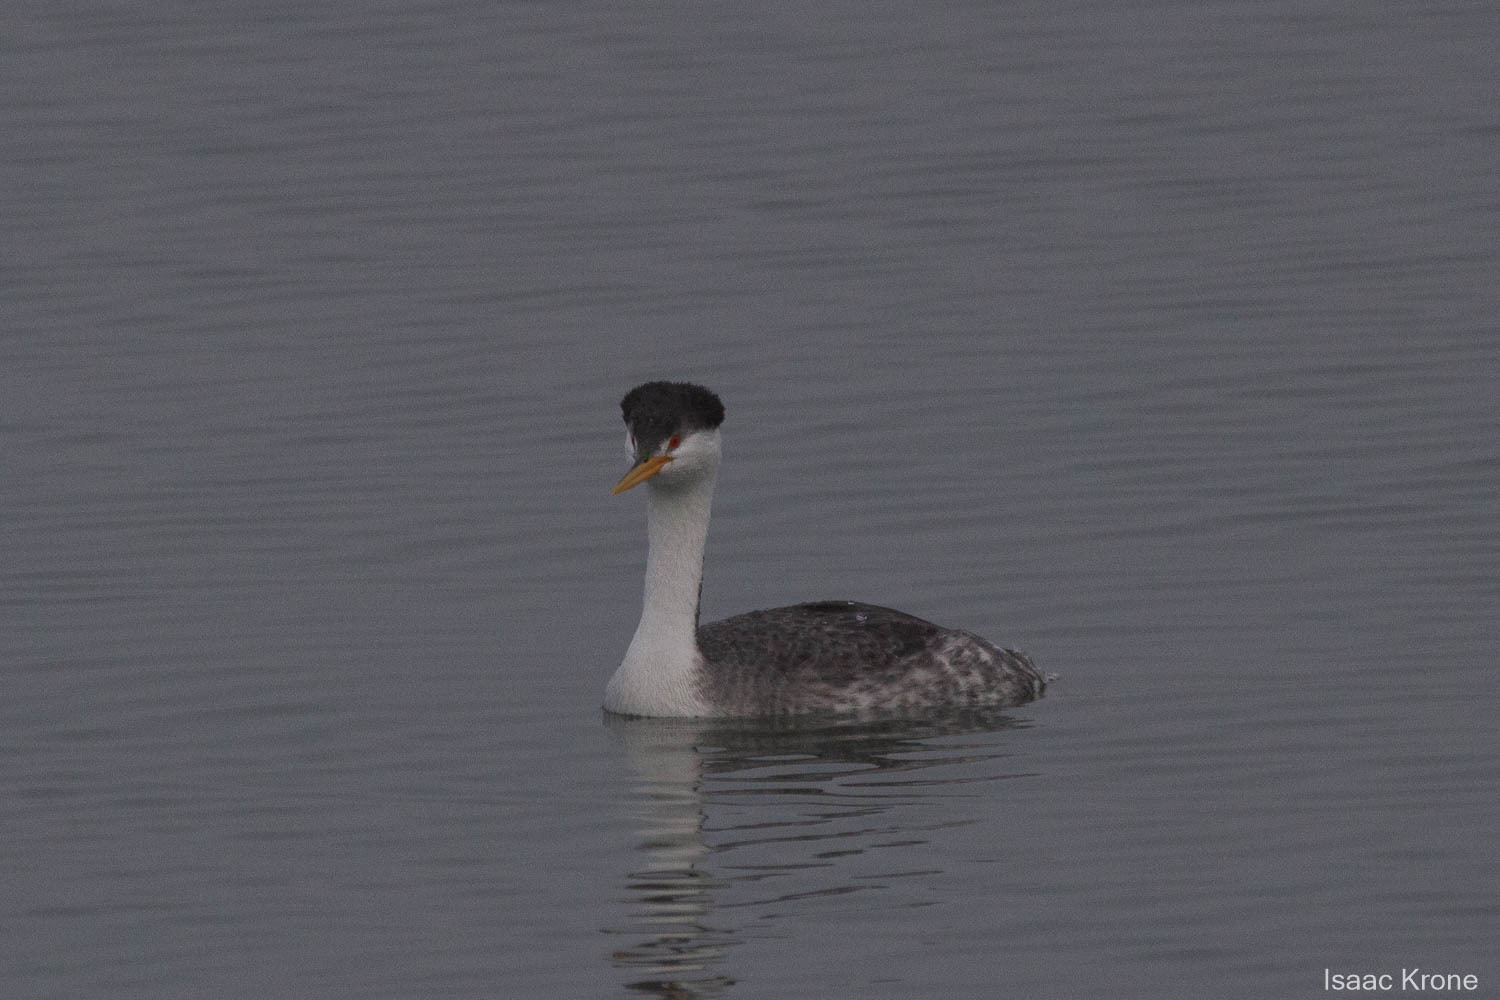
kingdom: Animalia
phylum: Chordata
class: Aves
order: Podicipediformes
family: Podicipedidae
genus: Aechmophorus
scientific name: Aechmophorus clarkii
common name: Clark's grebe
